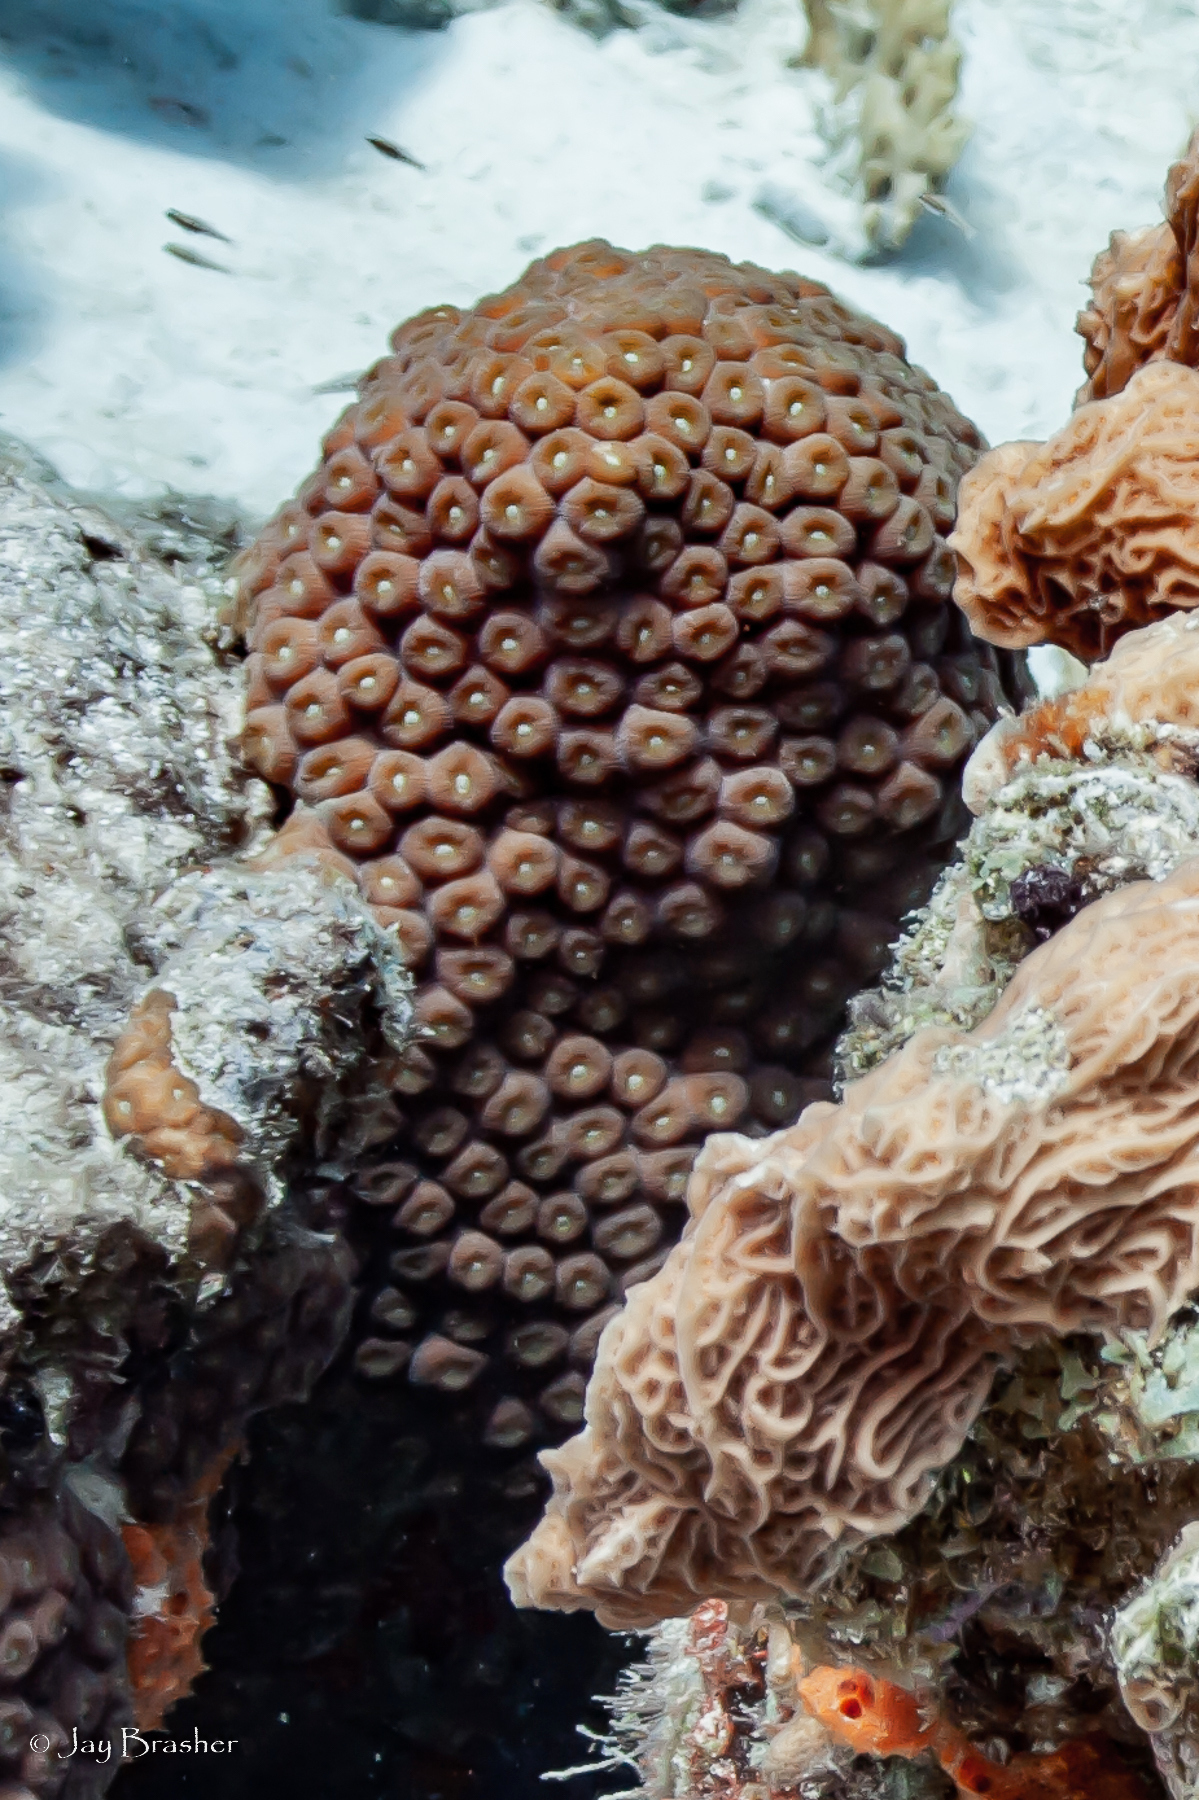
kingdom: Animalia
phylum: Cnidaria
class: Anthozoa
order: Scleractinia
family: Montastraeidae
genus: Montastraea
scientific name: Montastraea cavernosa
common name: Great star coral
